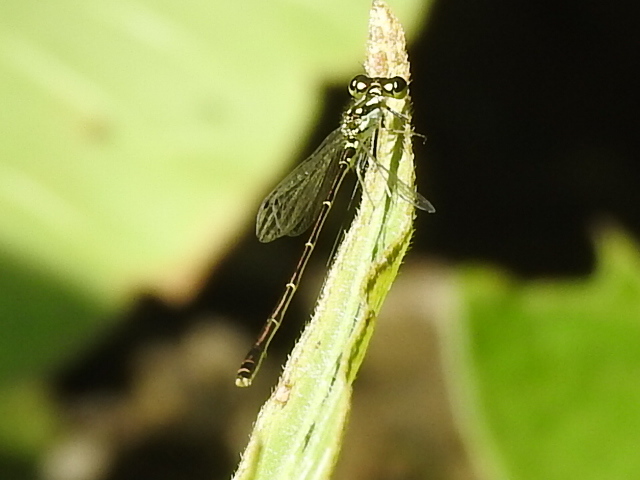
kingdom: Animalia
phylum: Arthropoda
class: Insecta
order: Odonata
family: Coenagrionidae
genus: Ischnura
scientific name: Ischnura posita
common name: Fragile forktail
